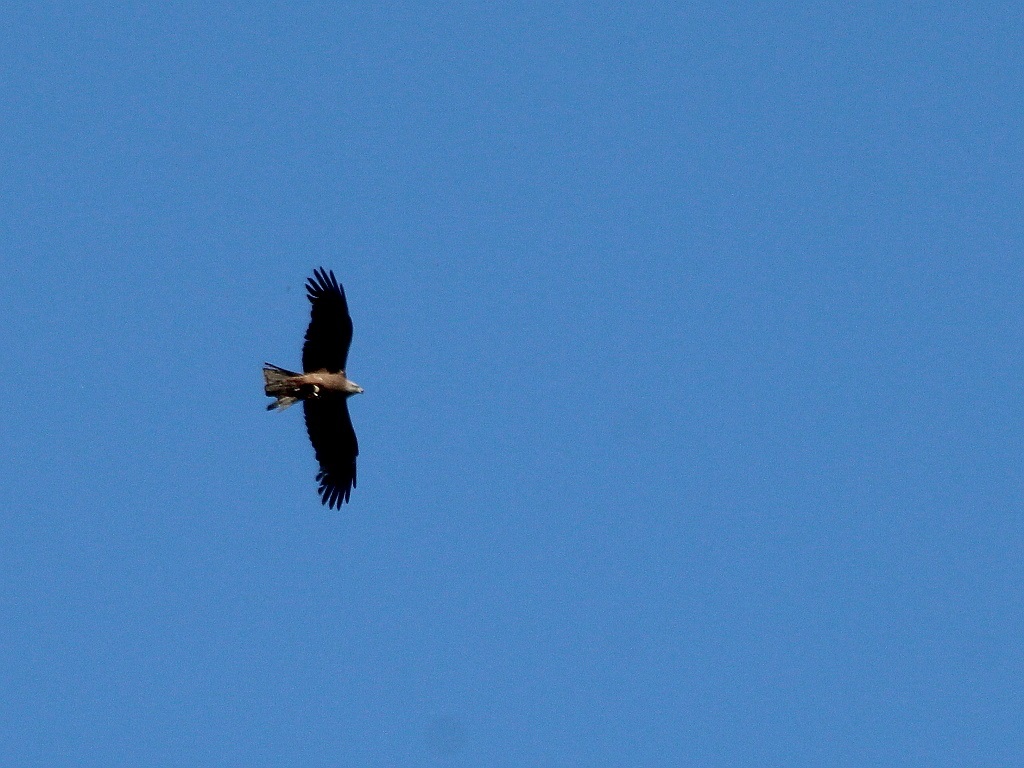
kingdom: Animalia
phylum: Chordata
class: Aves
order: Accipitriformes
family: Accipitridae
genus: Milvus
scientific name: Milvus migrans
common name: Black kite
